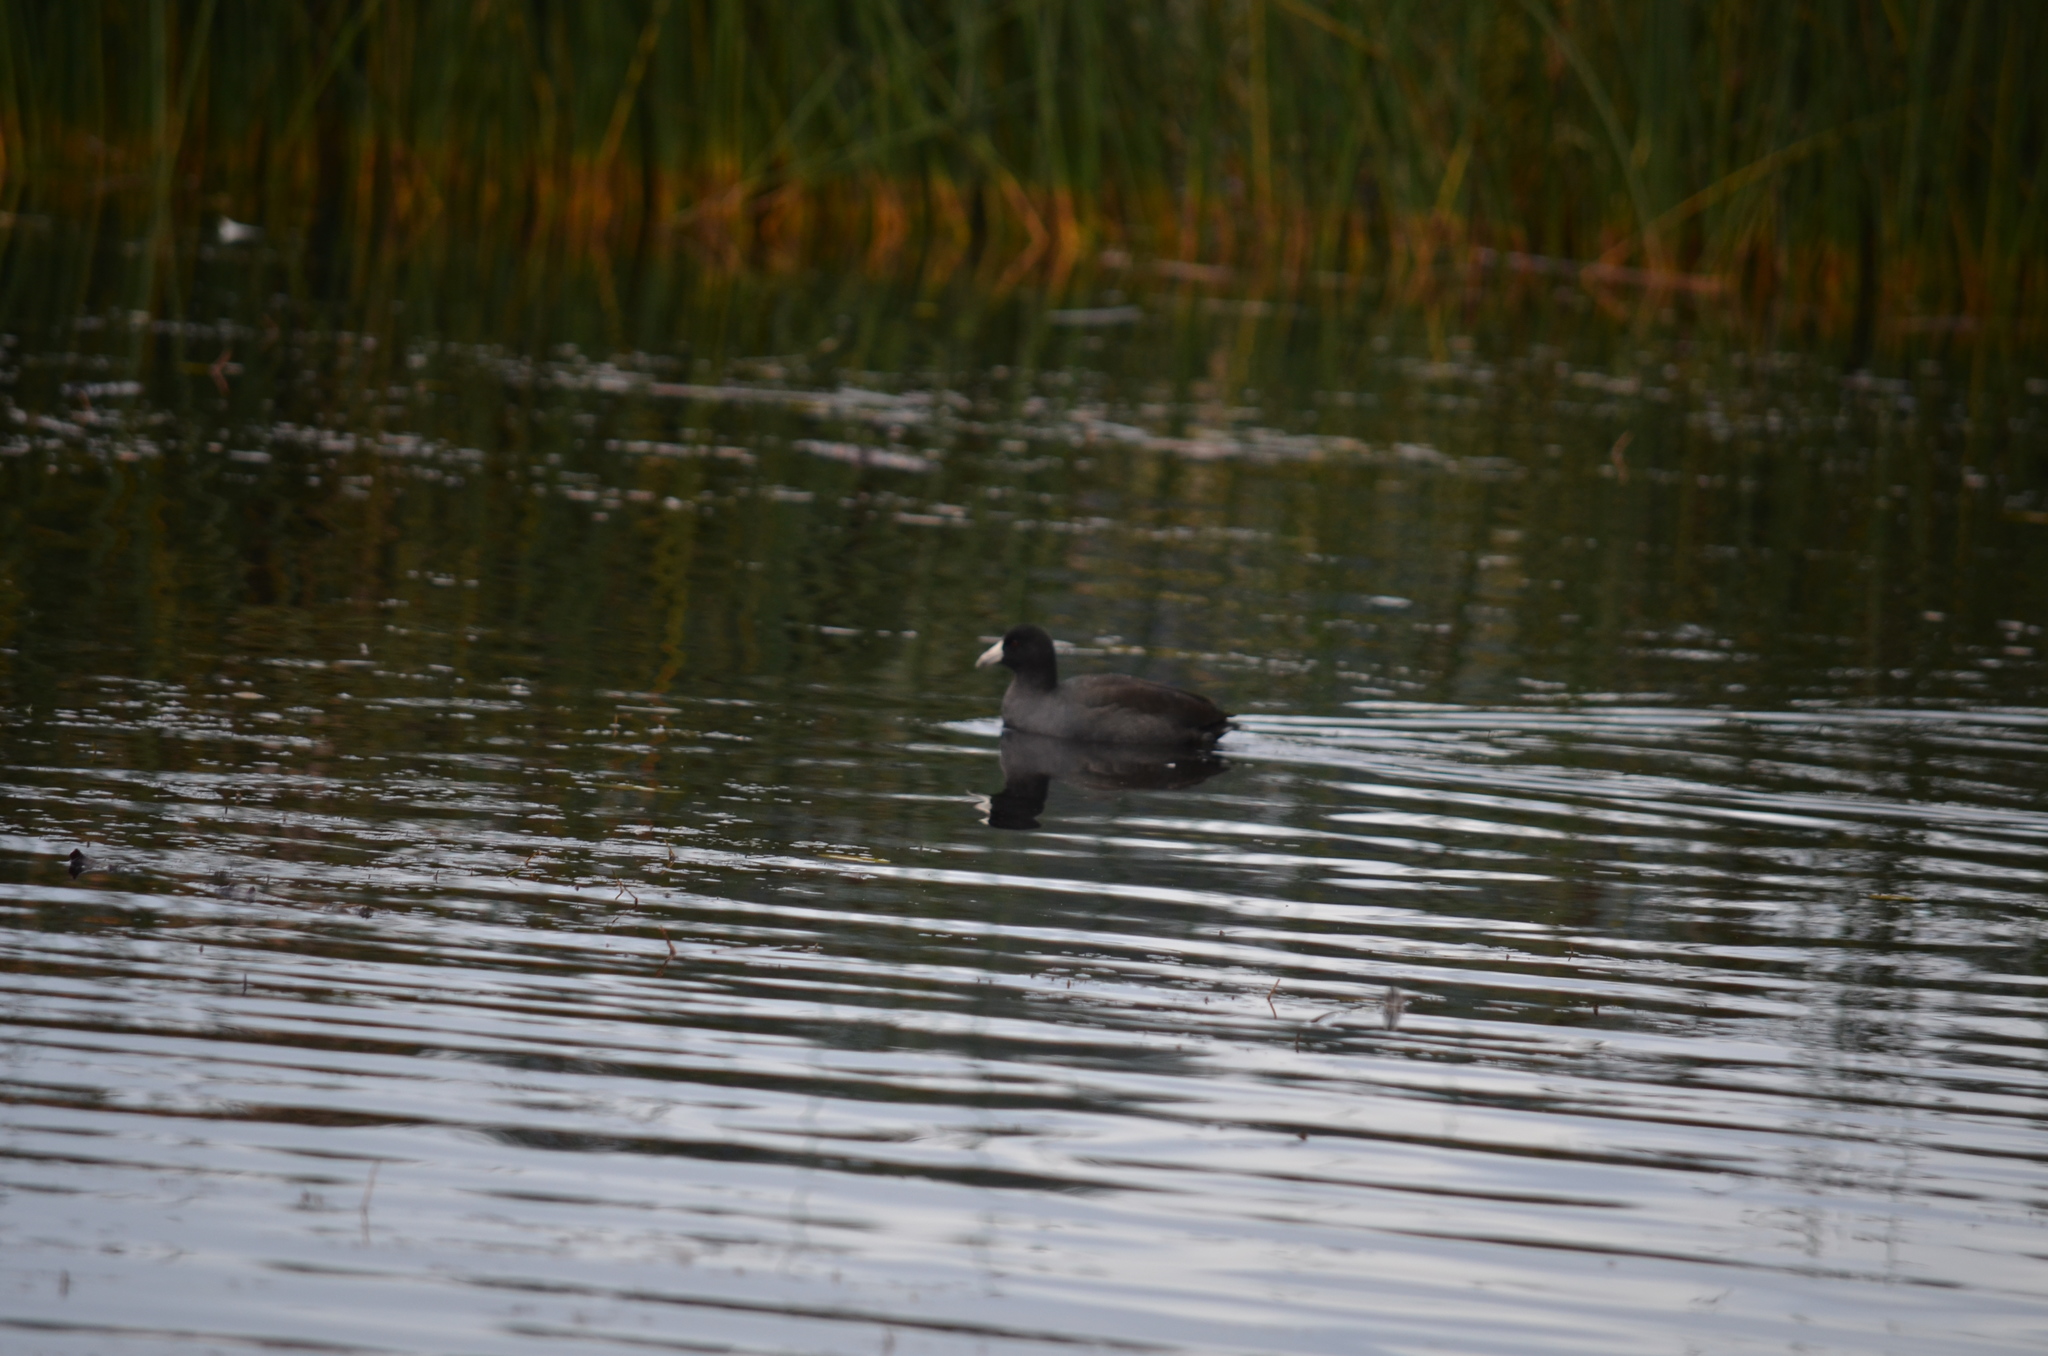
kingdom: Animalia
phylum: Chordata
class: Aves
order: Gruiformes
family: Rallidae
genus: Fulica
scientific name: Fulica americana
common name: American coot
